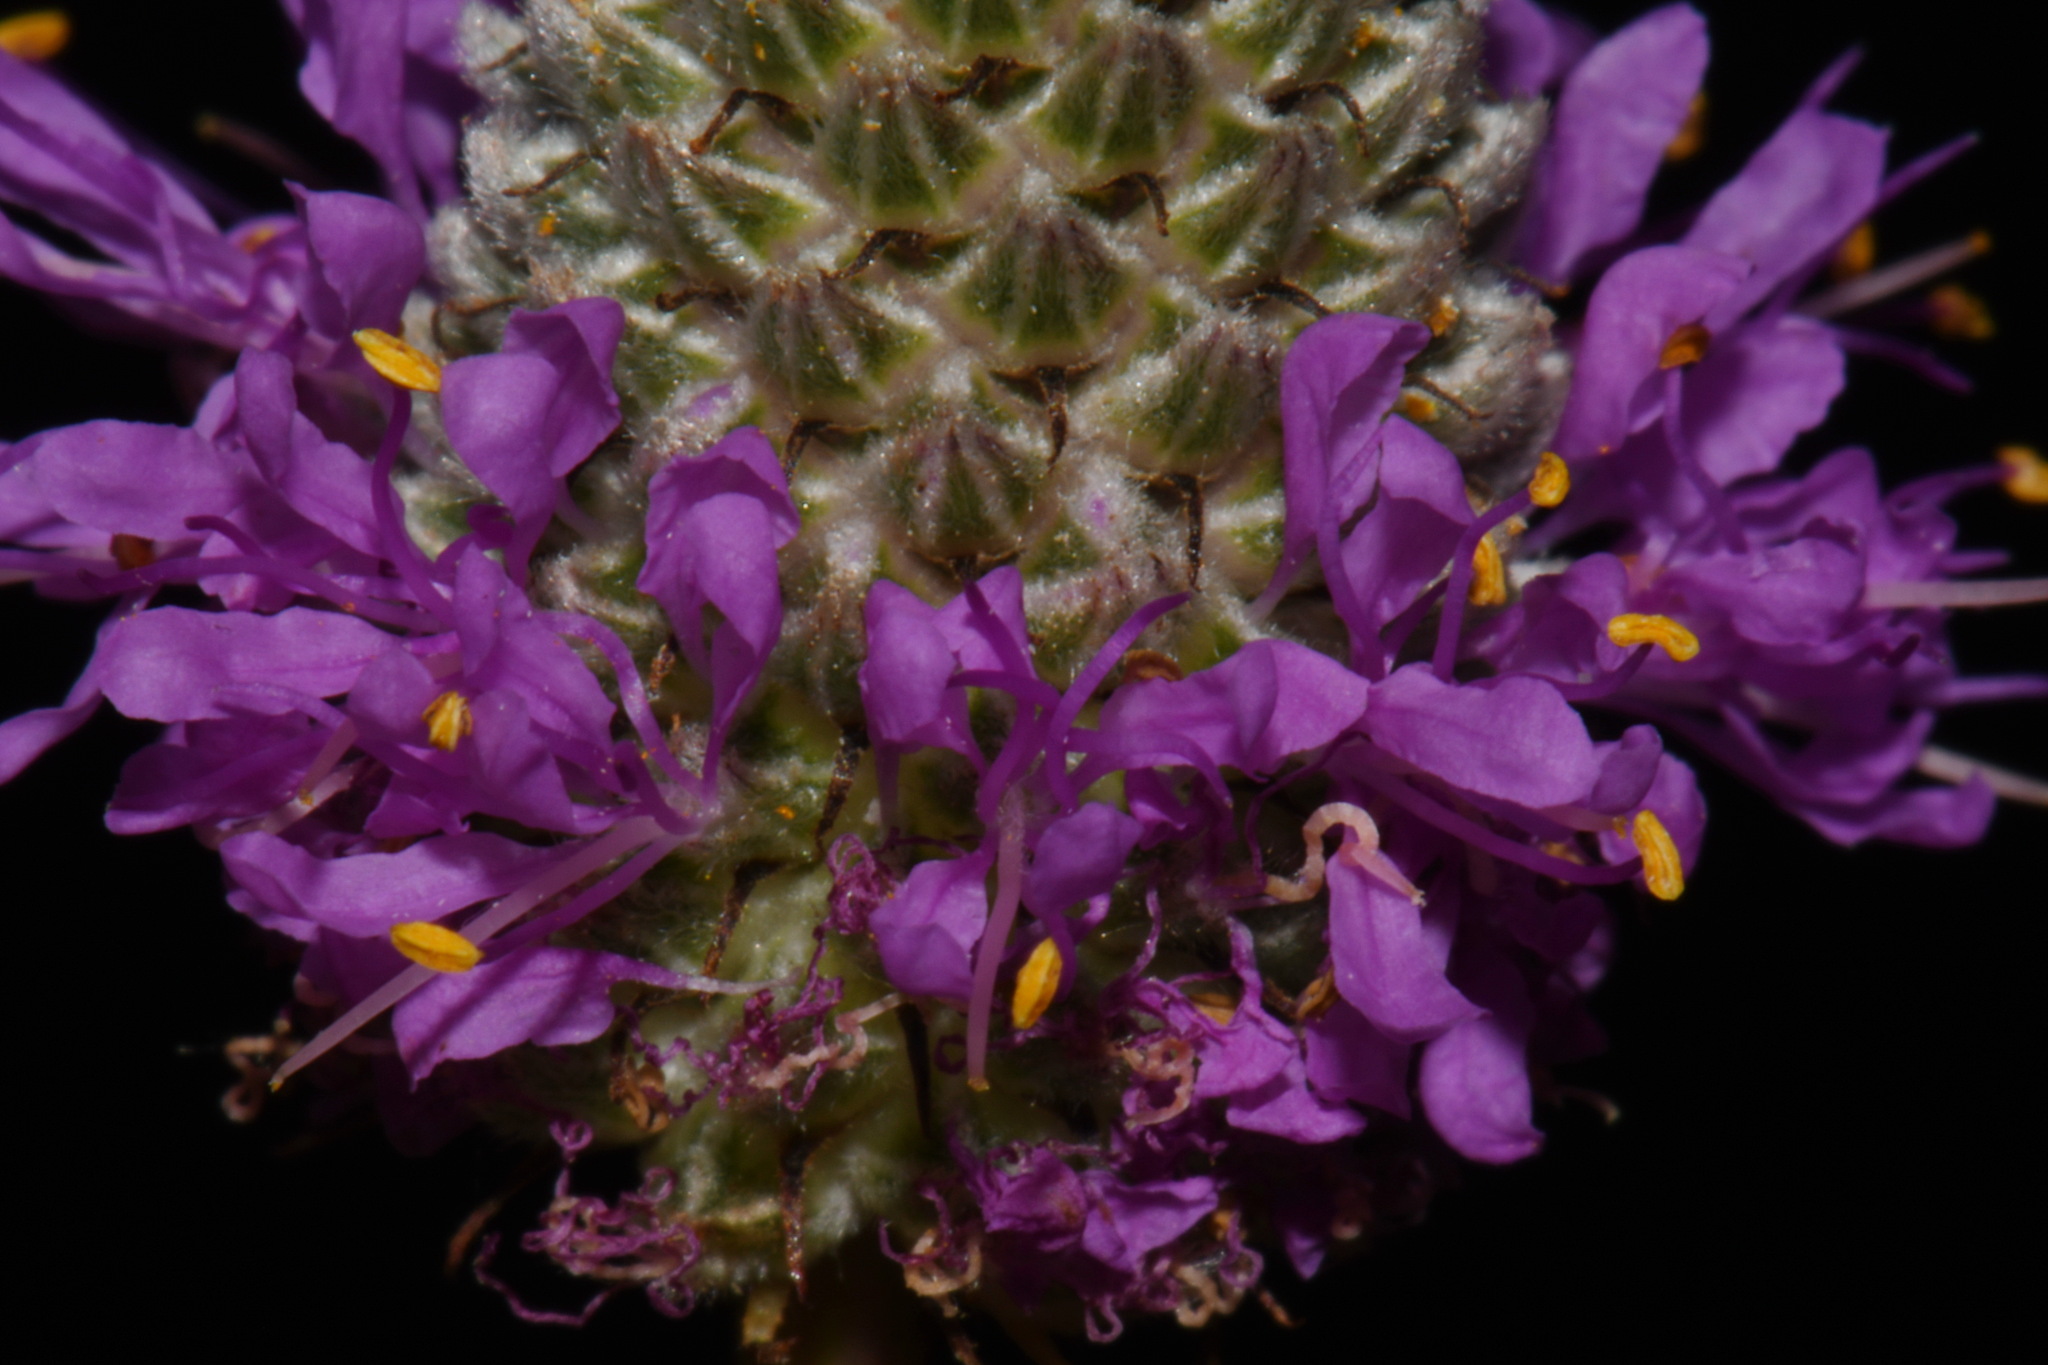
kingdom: Plantae
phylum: Tracheophyta
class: Magnoliopsida
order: Fabales
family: Fabaceae
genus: Dalea
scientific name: Dalea purpurea
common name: Purple prairie-clover
